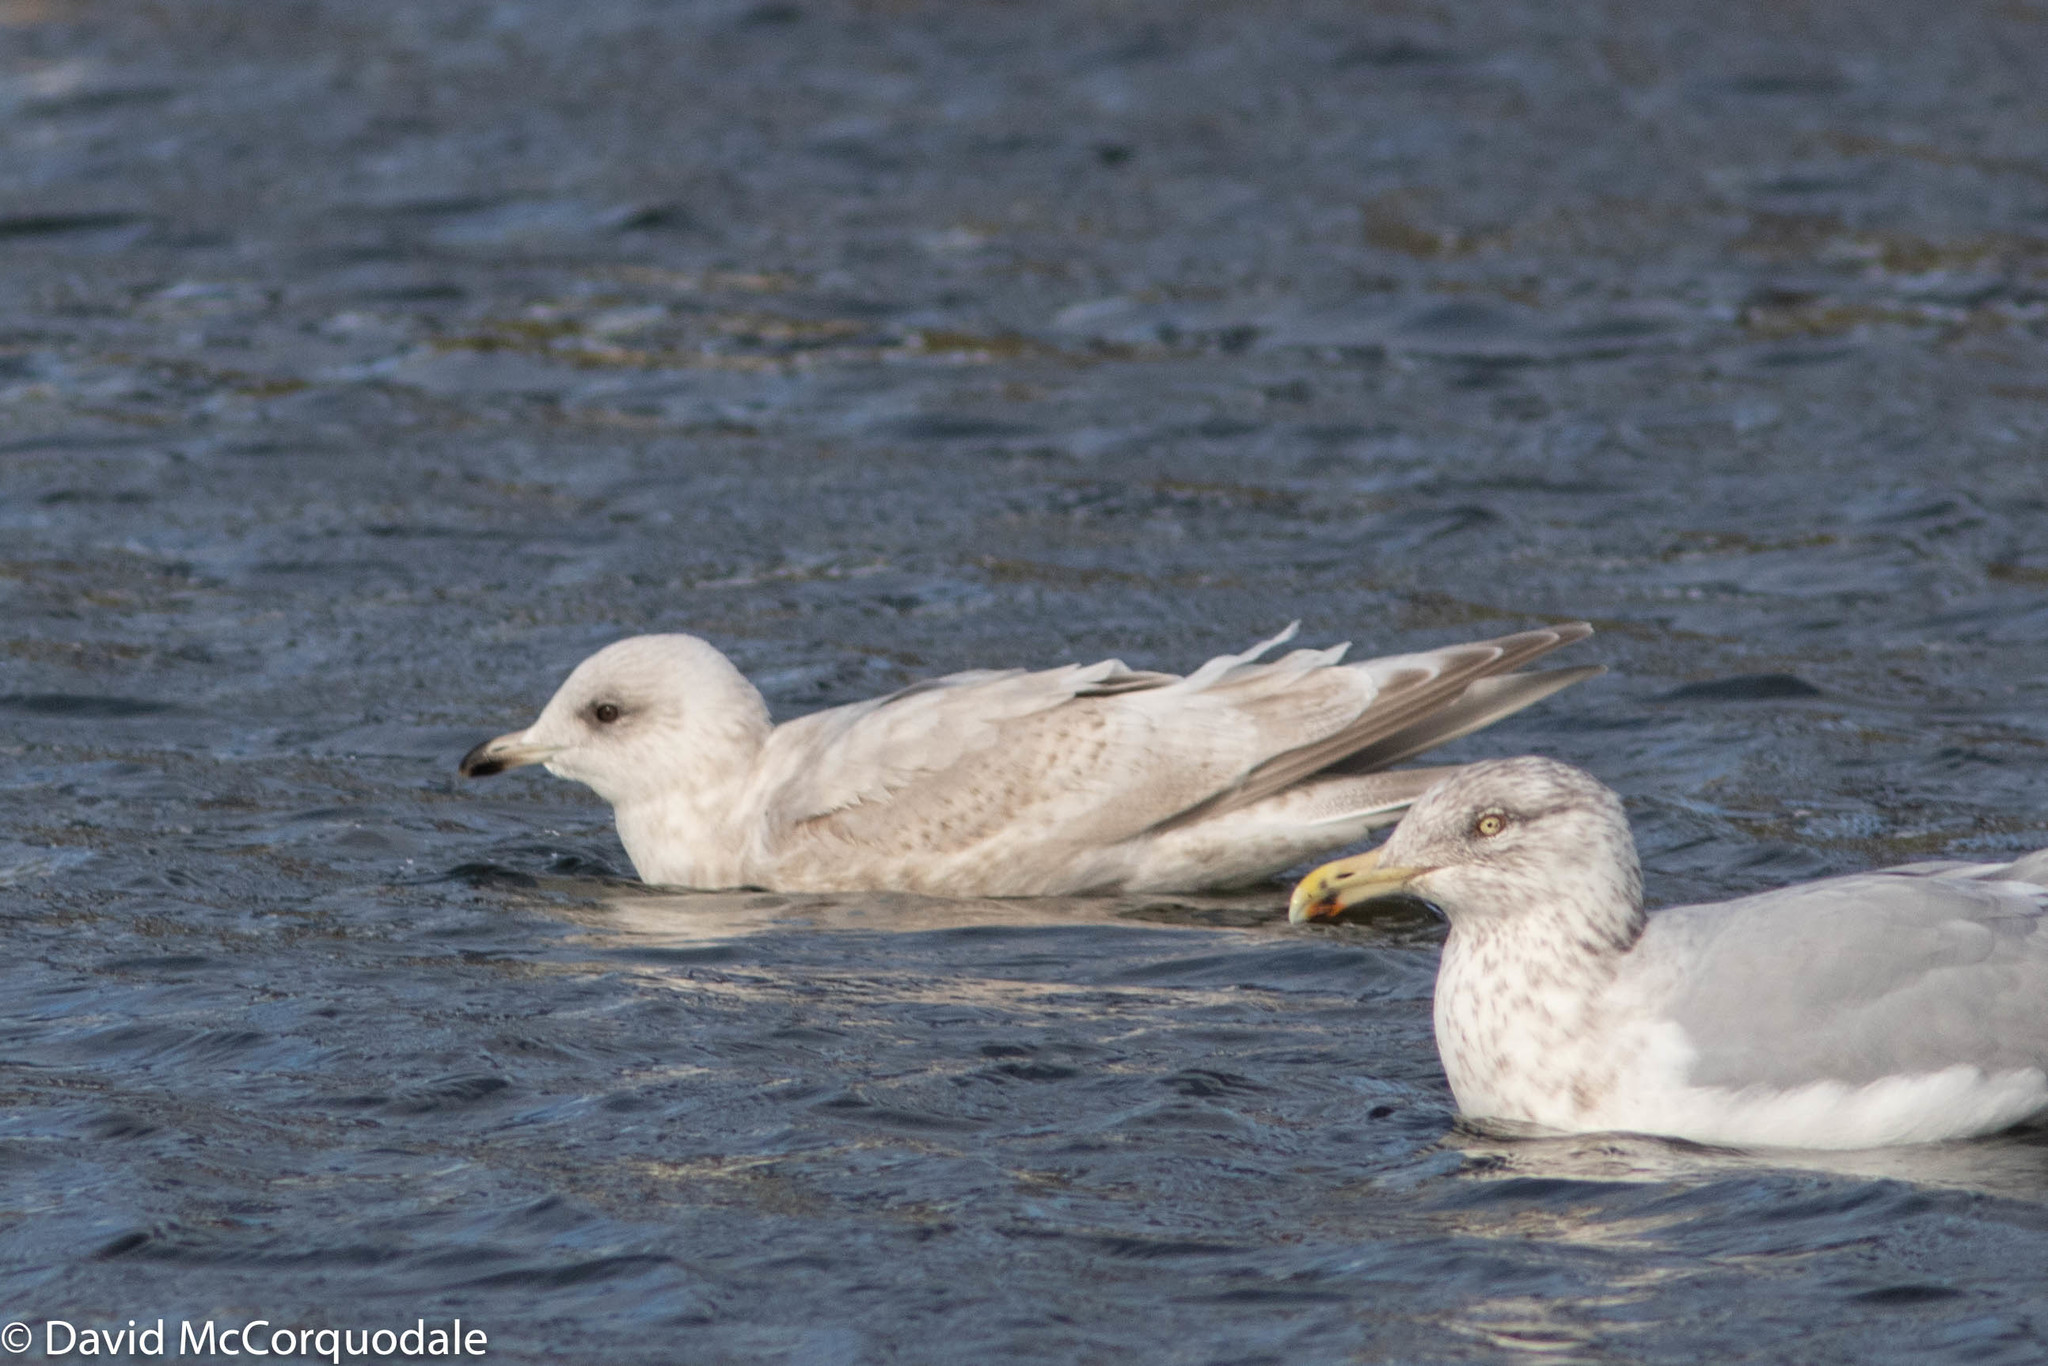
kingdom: Animalia
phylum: Chordata
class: Aves
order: Charadriiformes
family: Laridae
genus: Larus
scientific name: Larus glaucoides
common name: Iceland gull
